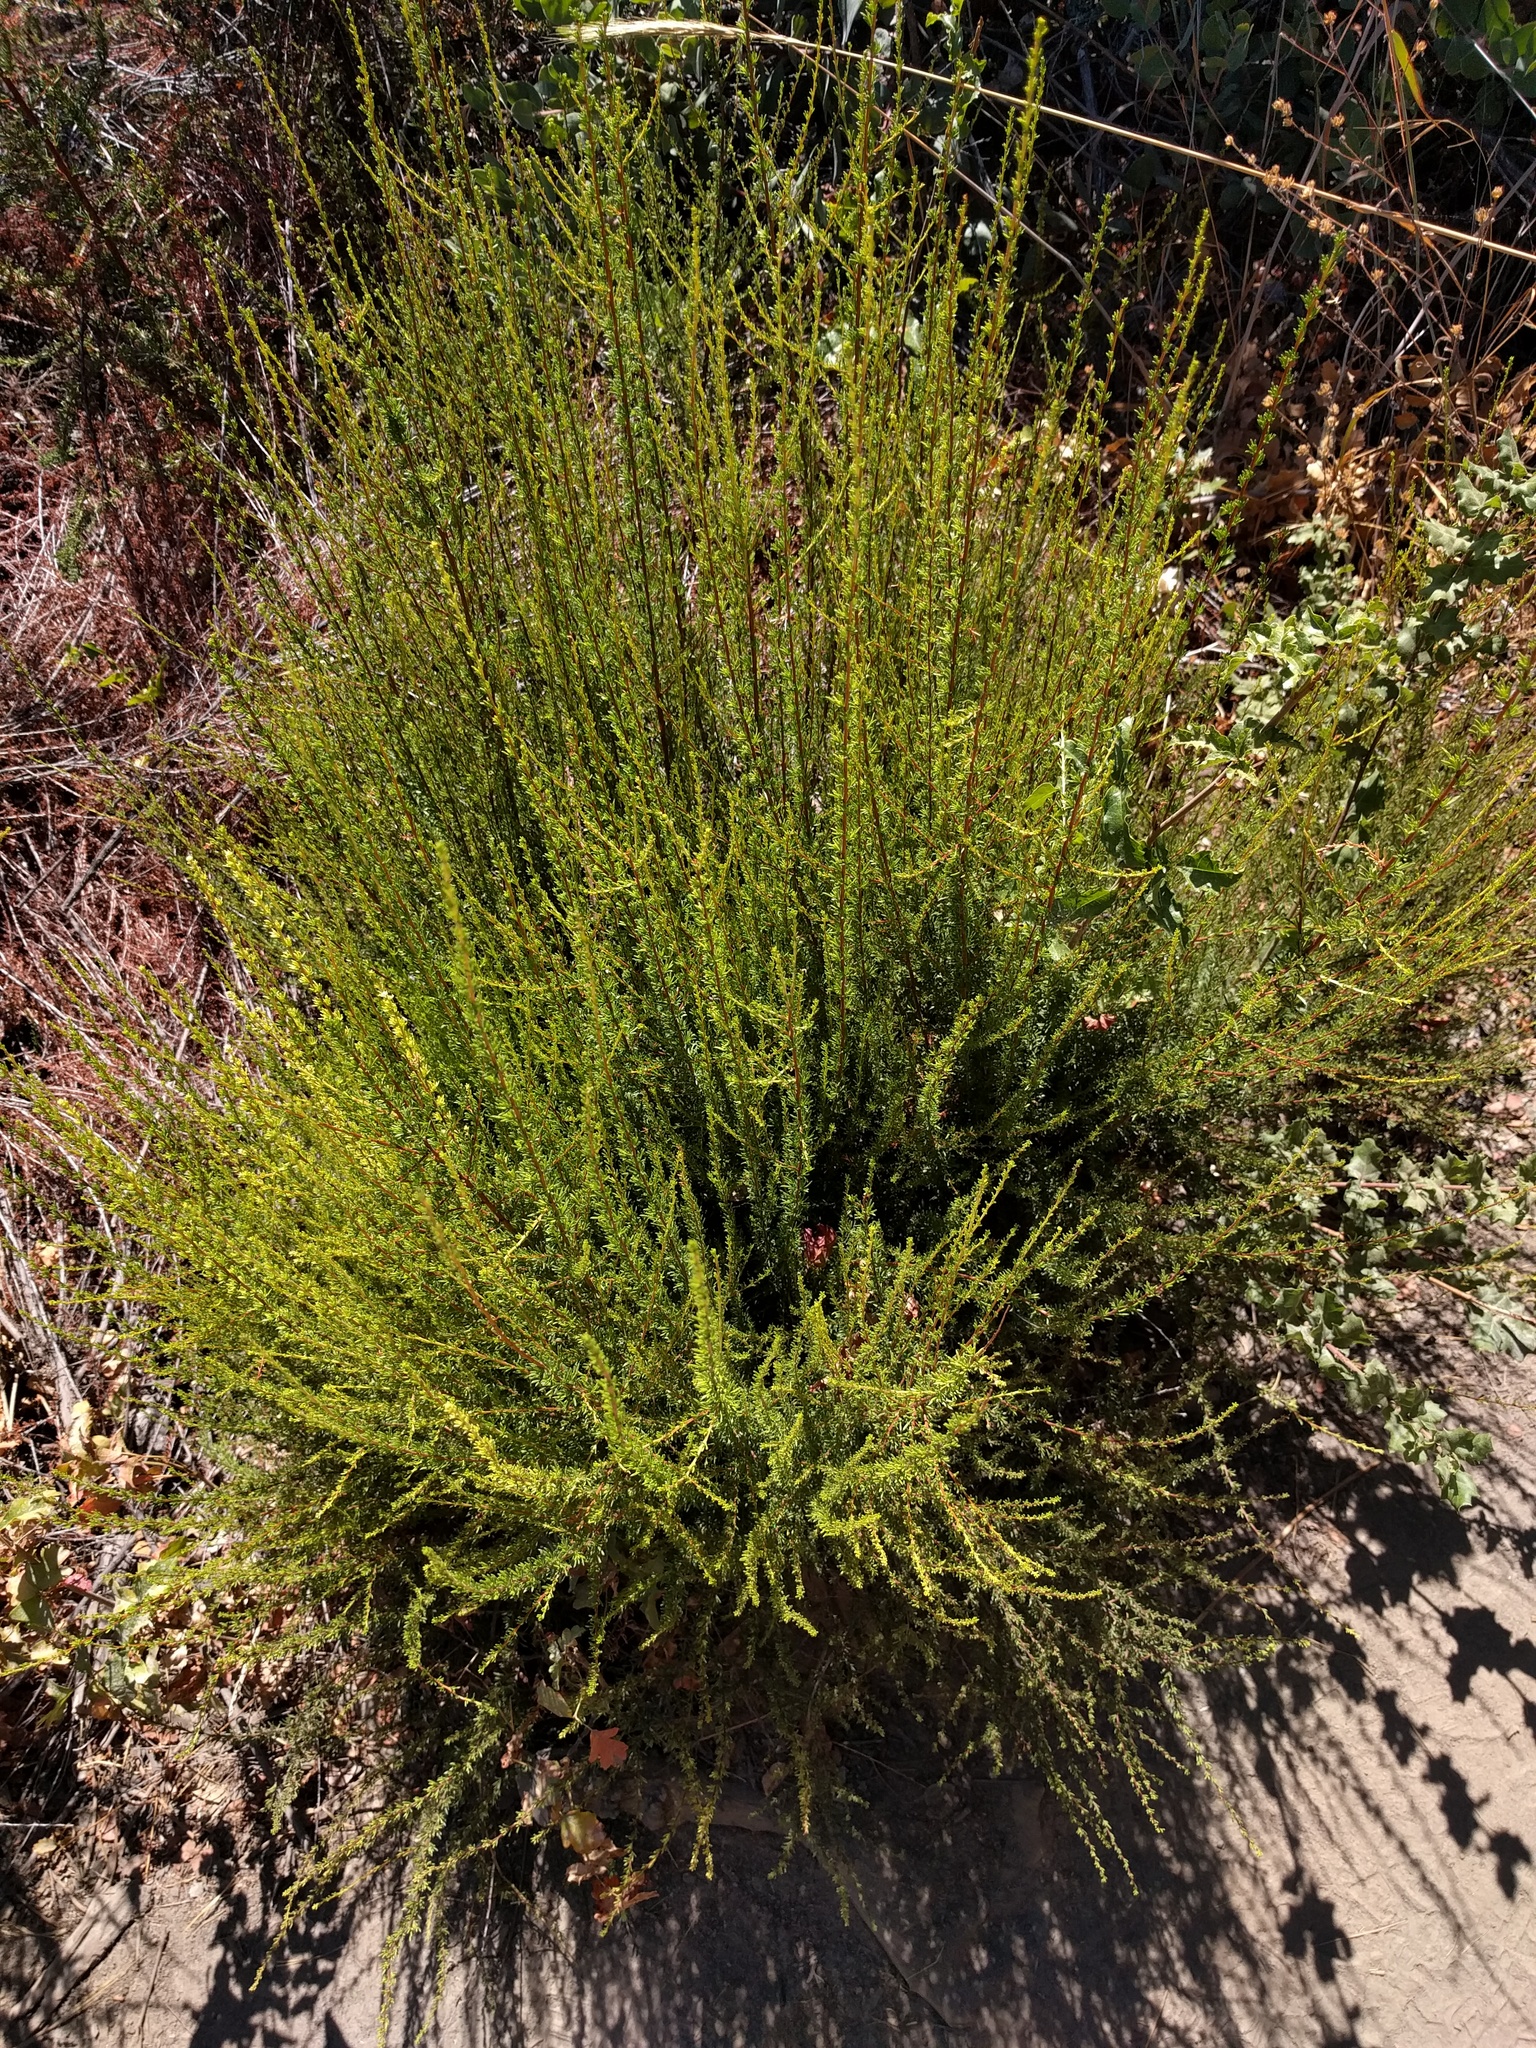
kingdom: Plantae
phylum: Tracheophyta
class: Magnoliopsida
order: Rosales
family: Rosaceae
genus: Adenostoma
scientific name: Adenostoma fasciculatum
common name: Chamise
